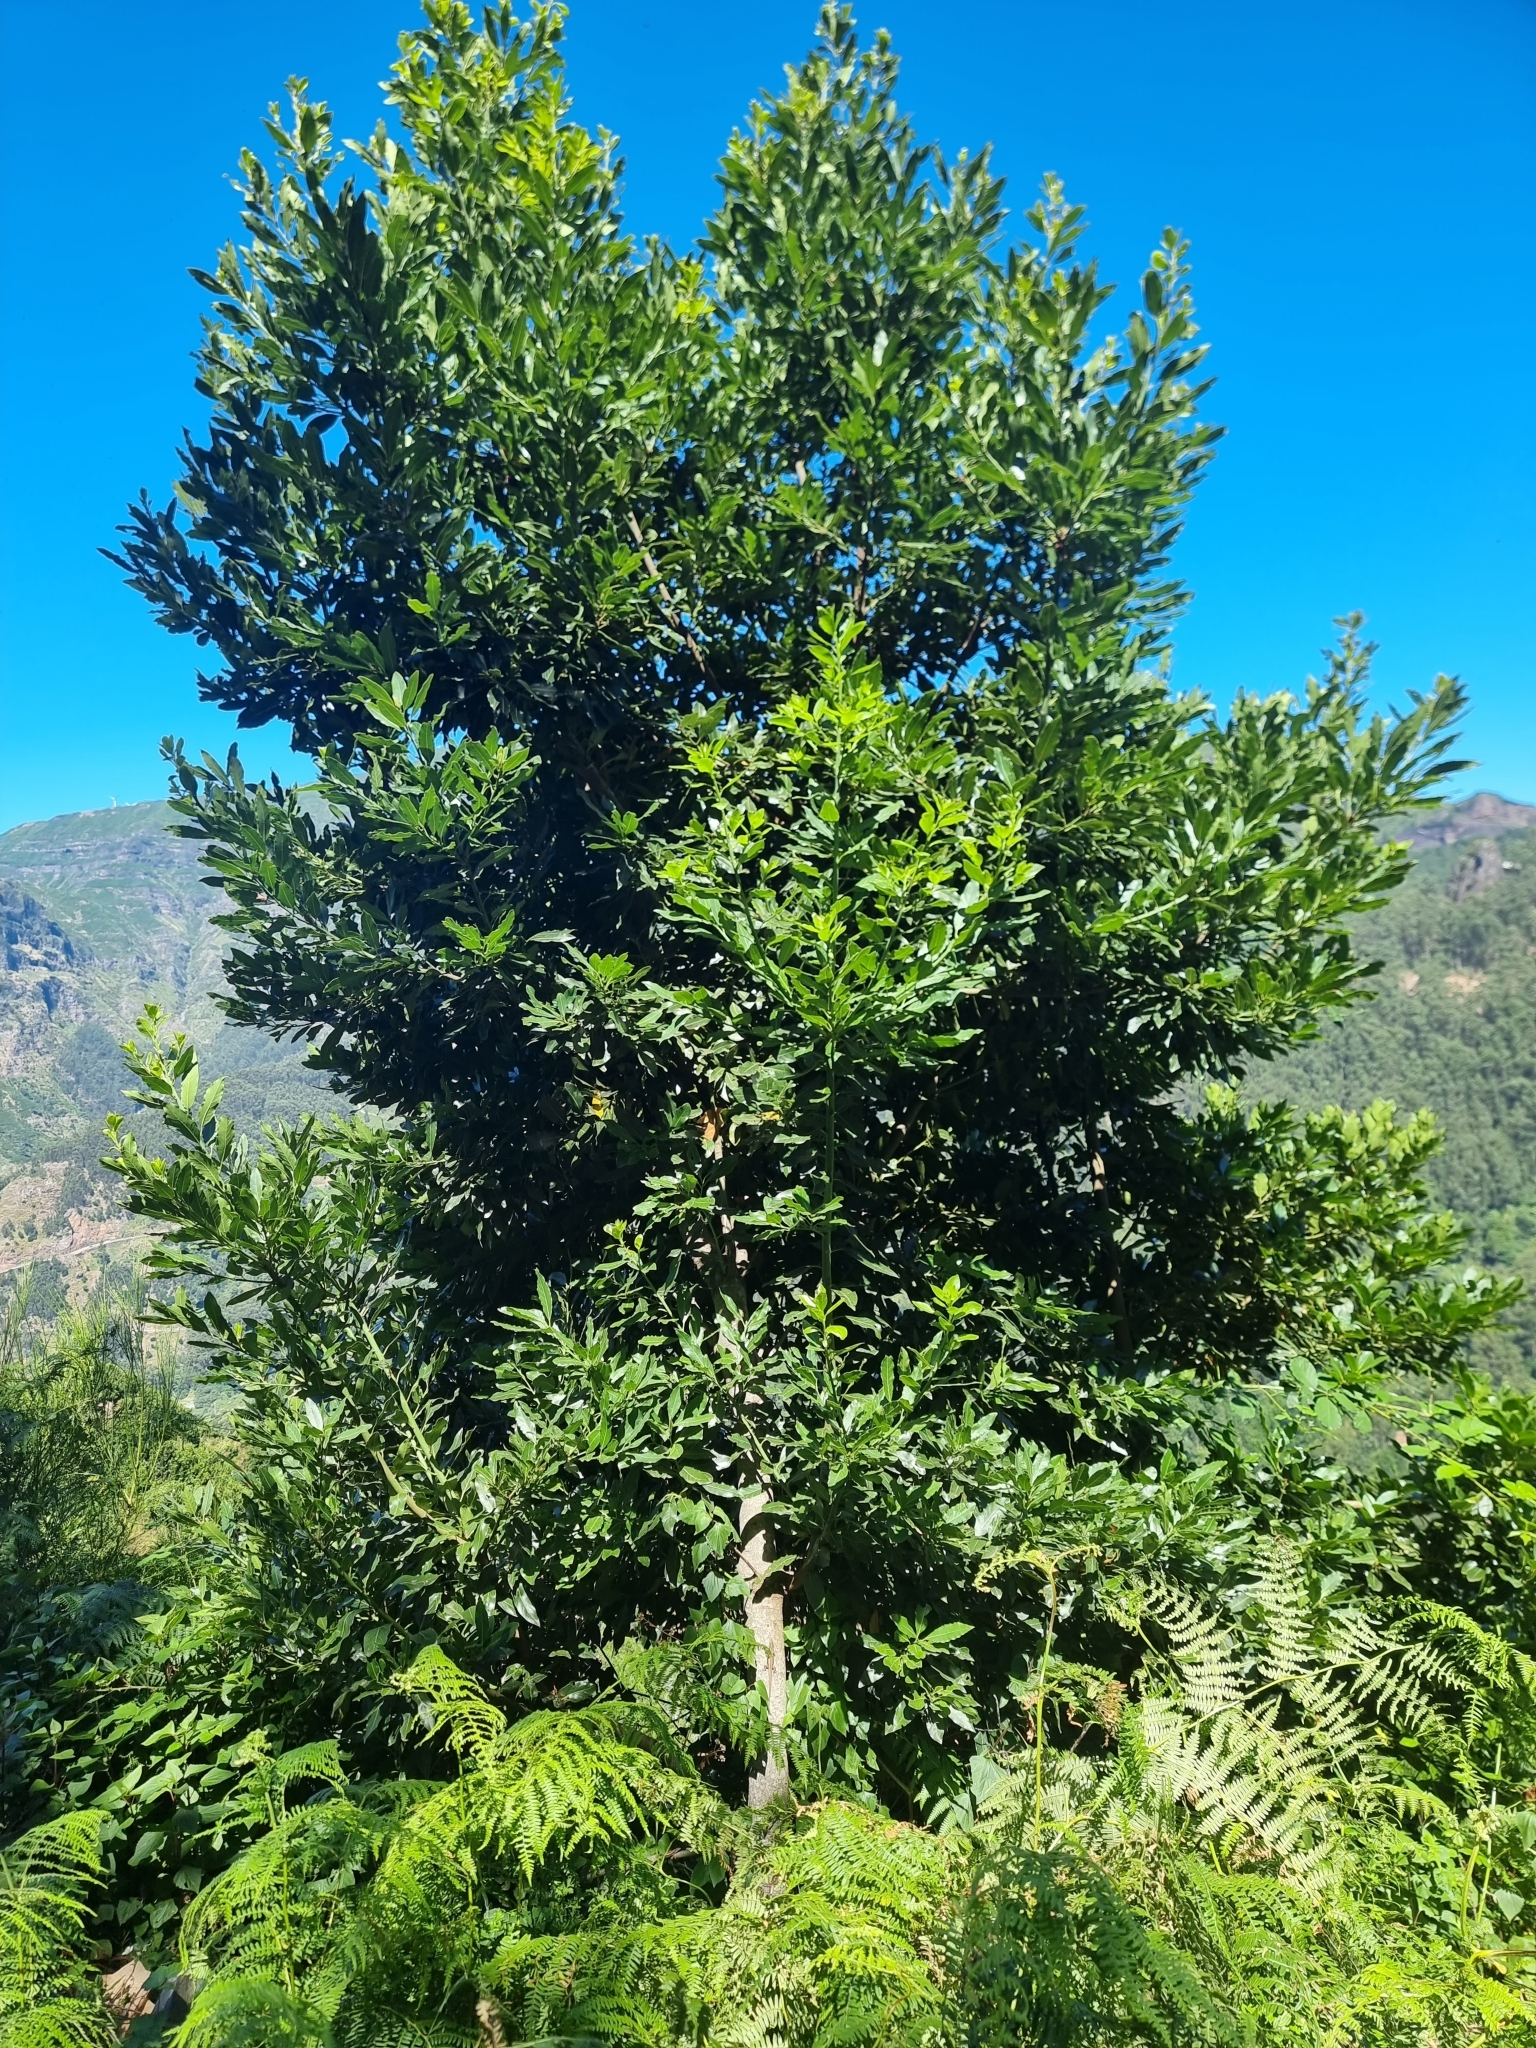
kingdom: Plantae
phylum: Tracheophyta
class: Magnoliopsida
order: Laurales
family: Lauraceae
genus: Laurus
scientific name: Laurus novocanariensis
